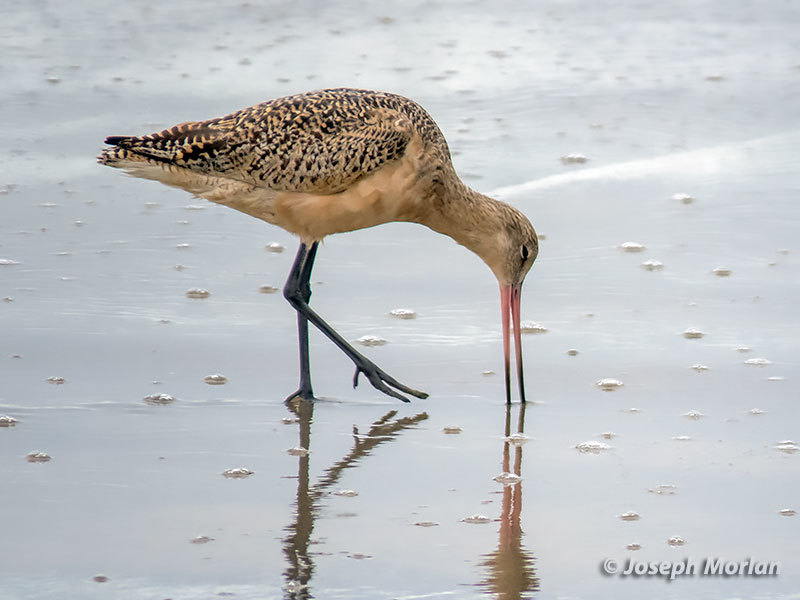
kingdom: Animalia
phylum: Chordata
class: Aves
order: Charadriiformes
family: Scolopacidae
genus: Limosa
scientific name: Limosa fedoa
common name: Marbled godwit
